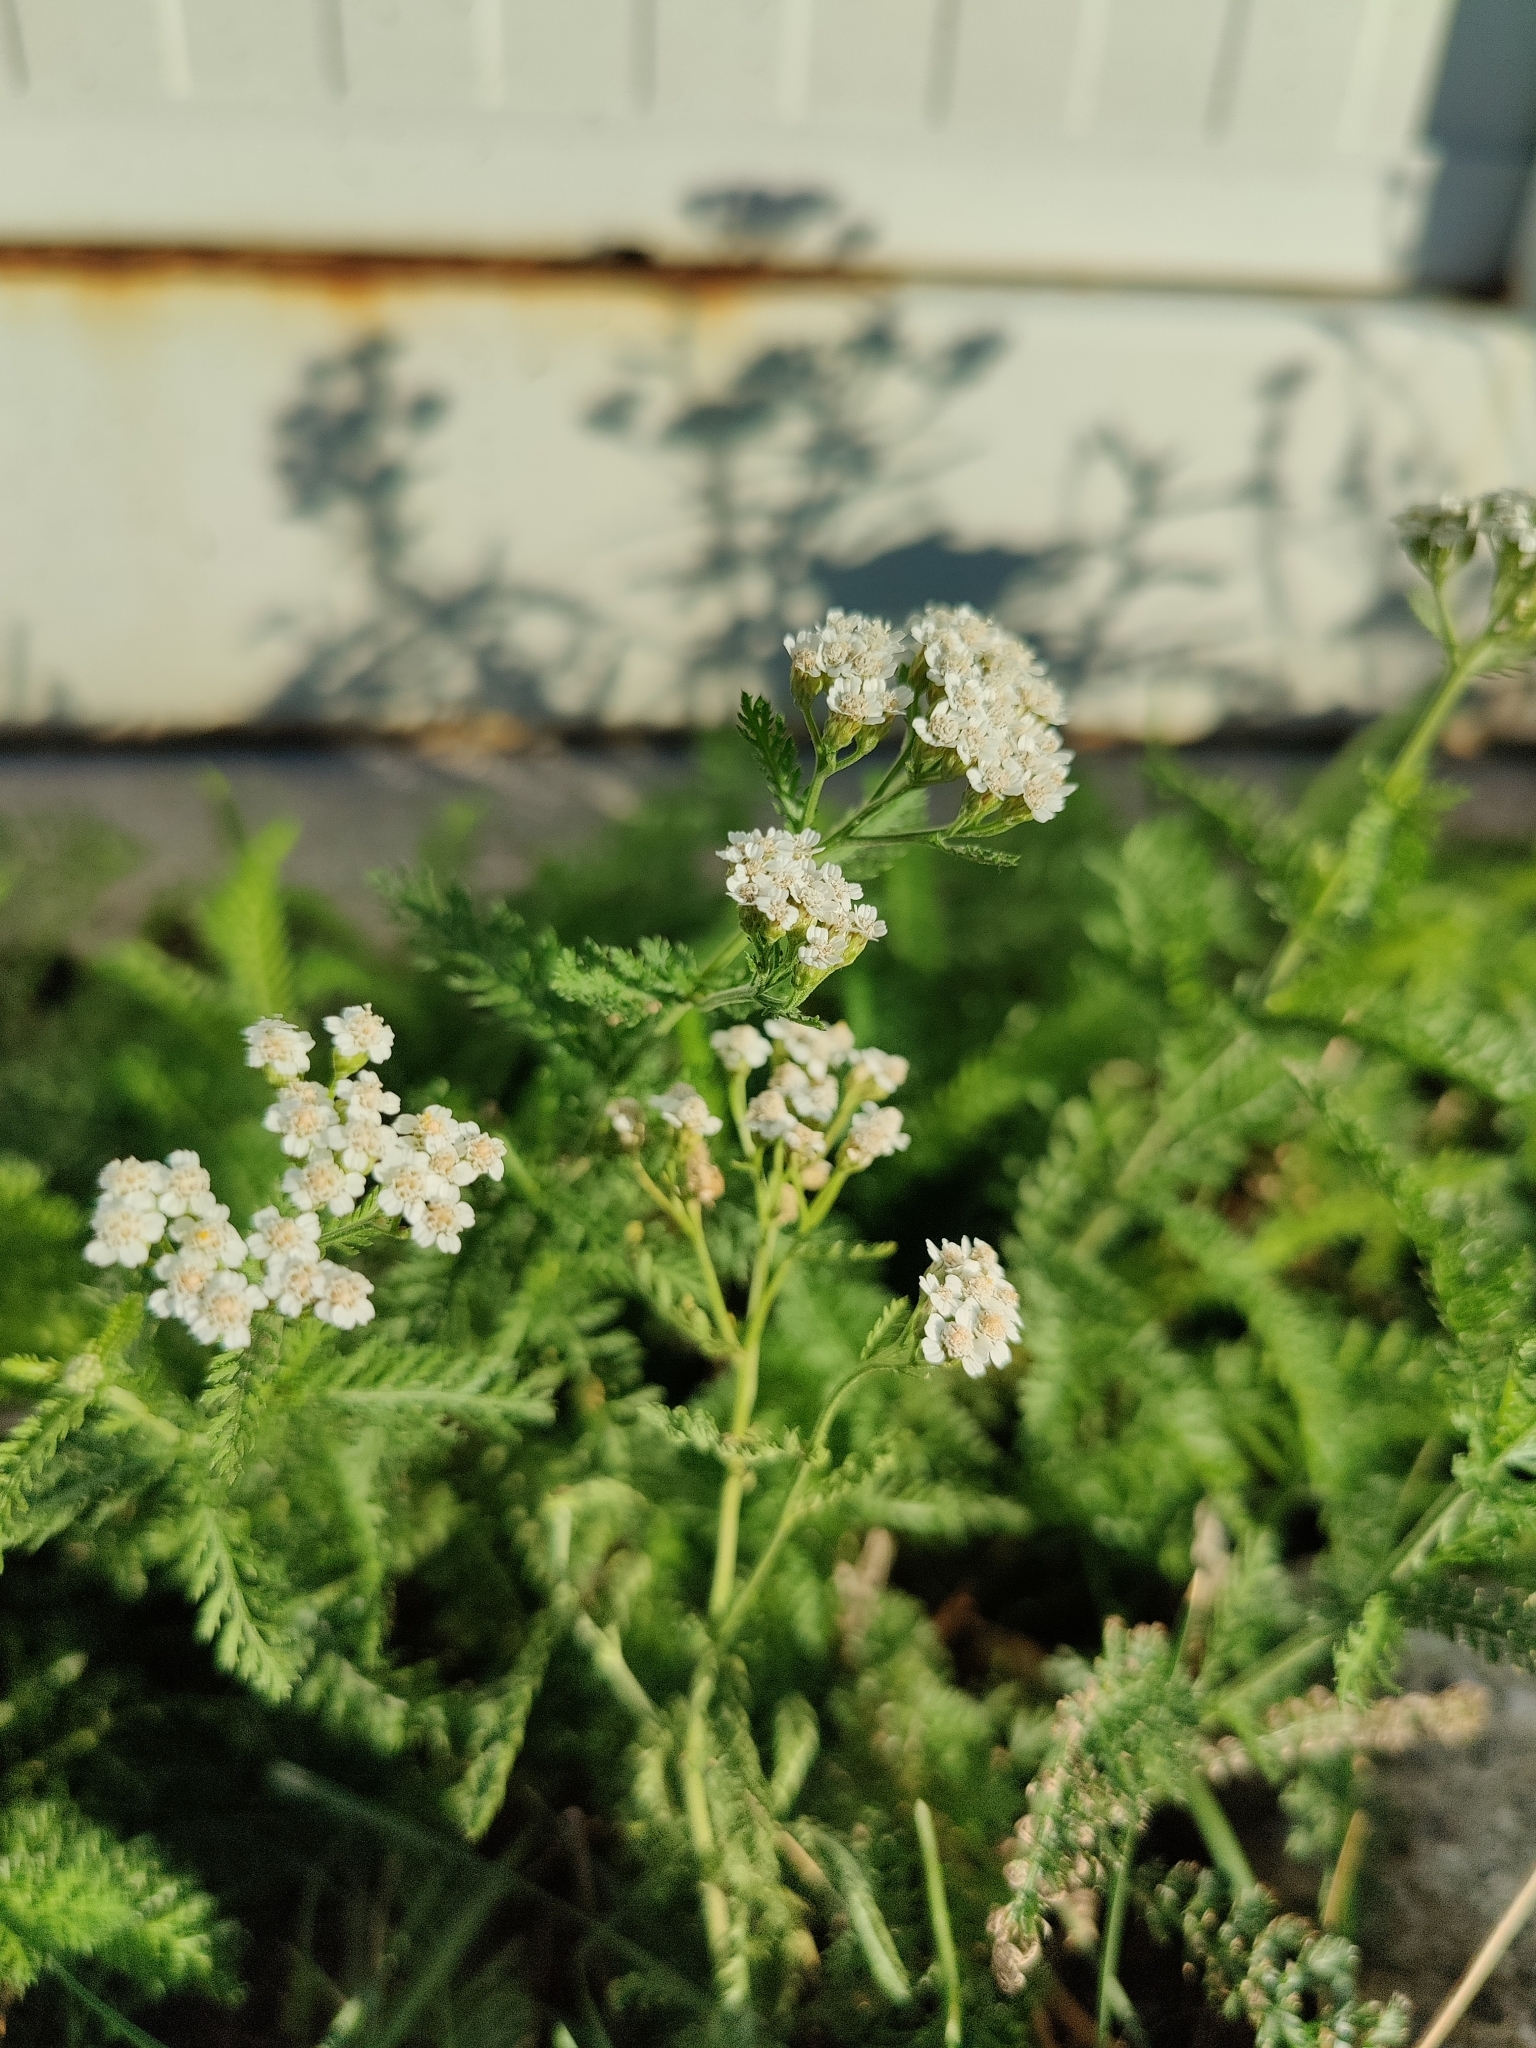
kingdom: Plantae
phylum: Tracheophyta
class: Magnoliopsida
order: Asterales
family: Asteraceae
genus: Achillea
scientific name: Achillea millefolium
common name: Yarrow
